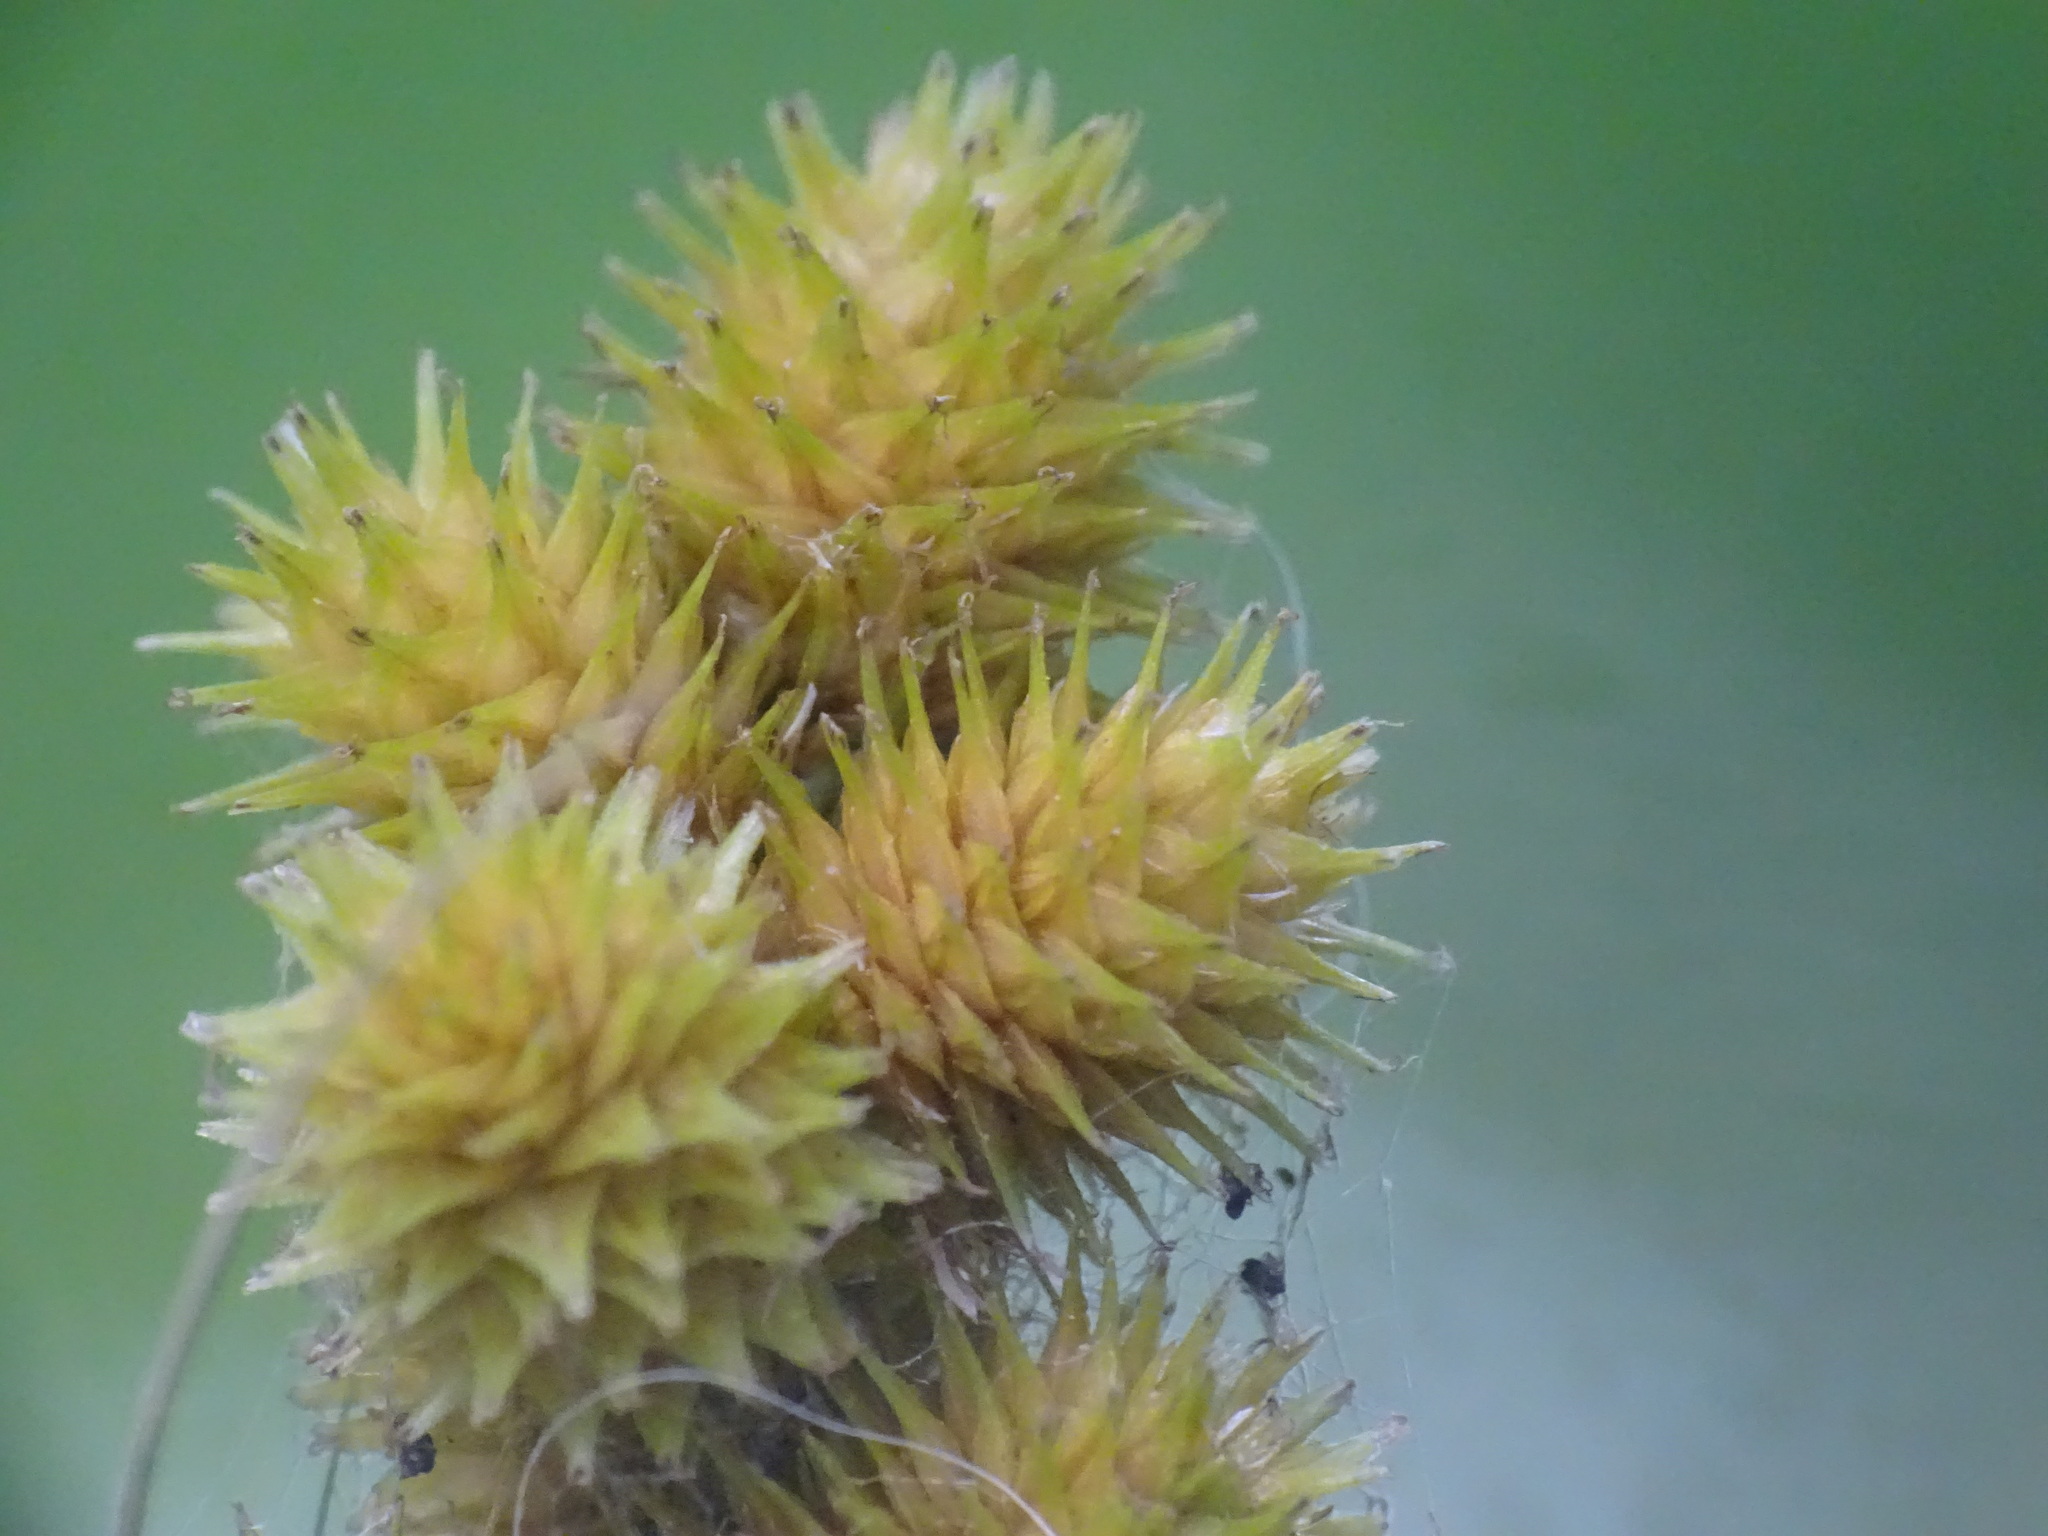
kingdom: Plantae
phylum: Tracheophyta
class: Liliopsida
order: Poales
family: Cyperaceae
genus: Carex
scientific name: Carex cristatella
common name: Crested oval sedge
